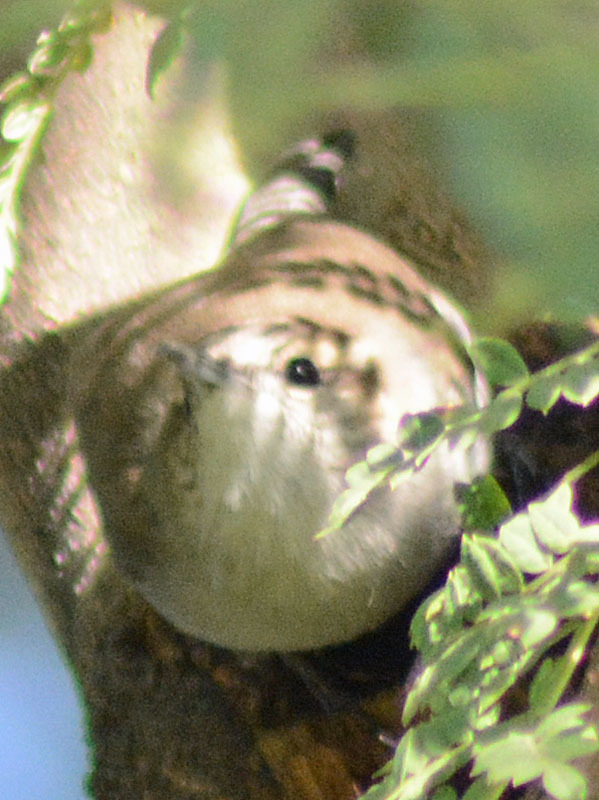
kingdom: Animalia
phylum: Chordata
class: Aves
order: Passeriformes
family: Troglodytidae
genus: Thryomanes
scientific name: Thryomanes bewickii
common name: Bewick's wren
